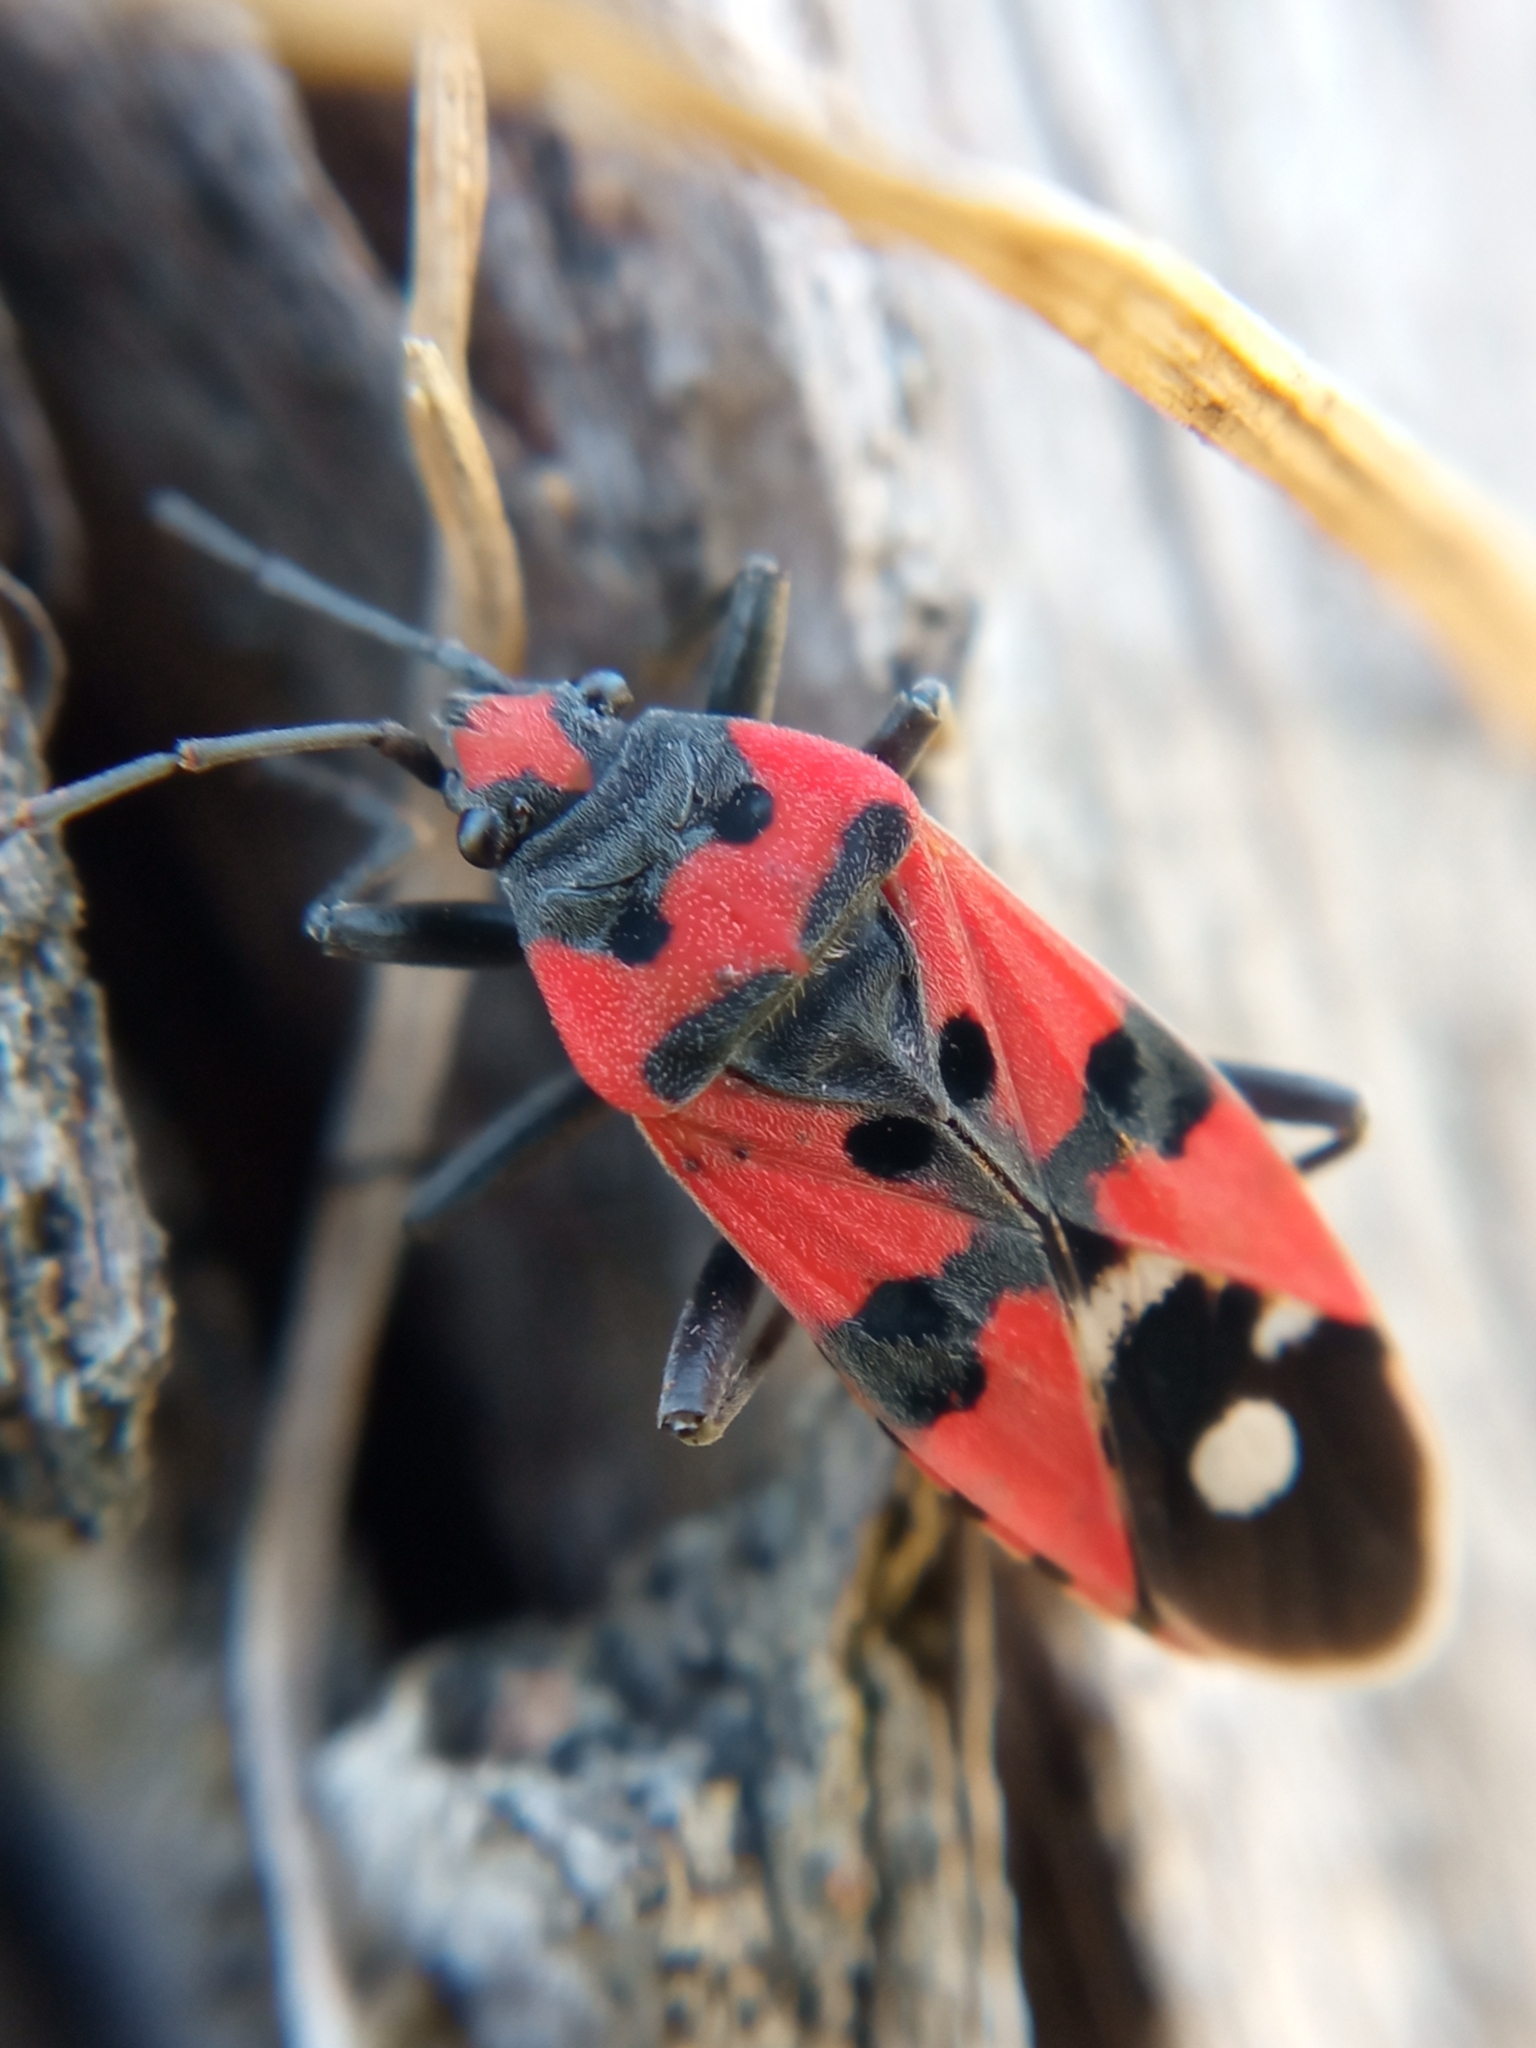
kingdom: Animalia
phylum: Arthropoda
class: Insecta
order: Hemiptera
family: Lygaeidae
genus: Lygaeus
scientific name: Lygaeus equestris
